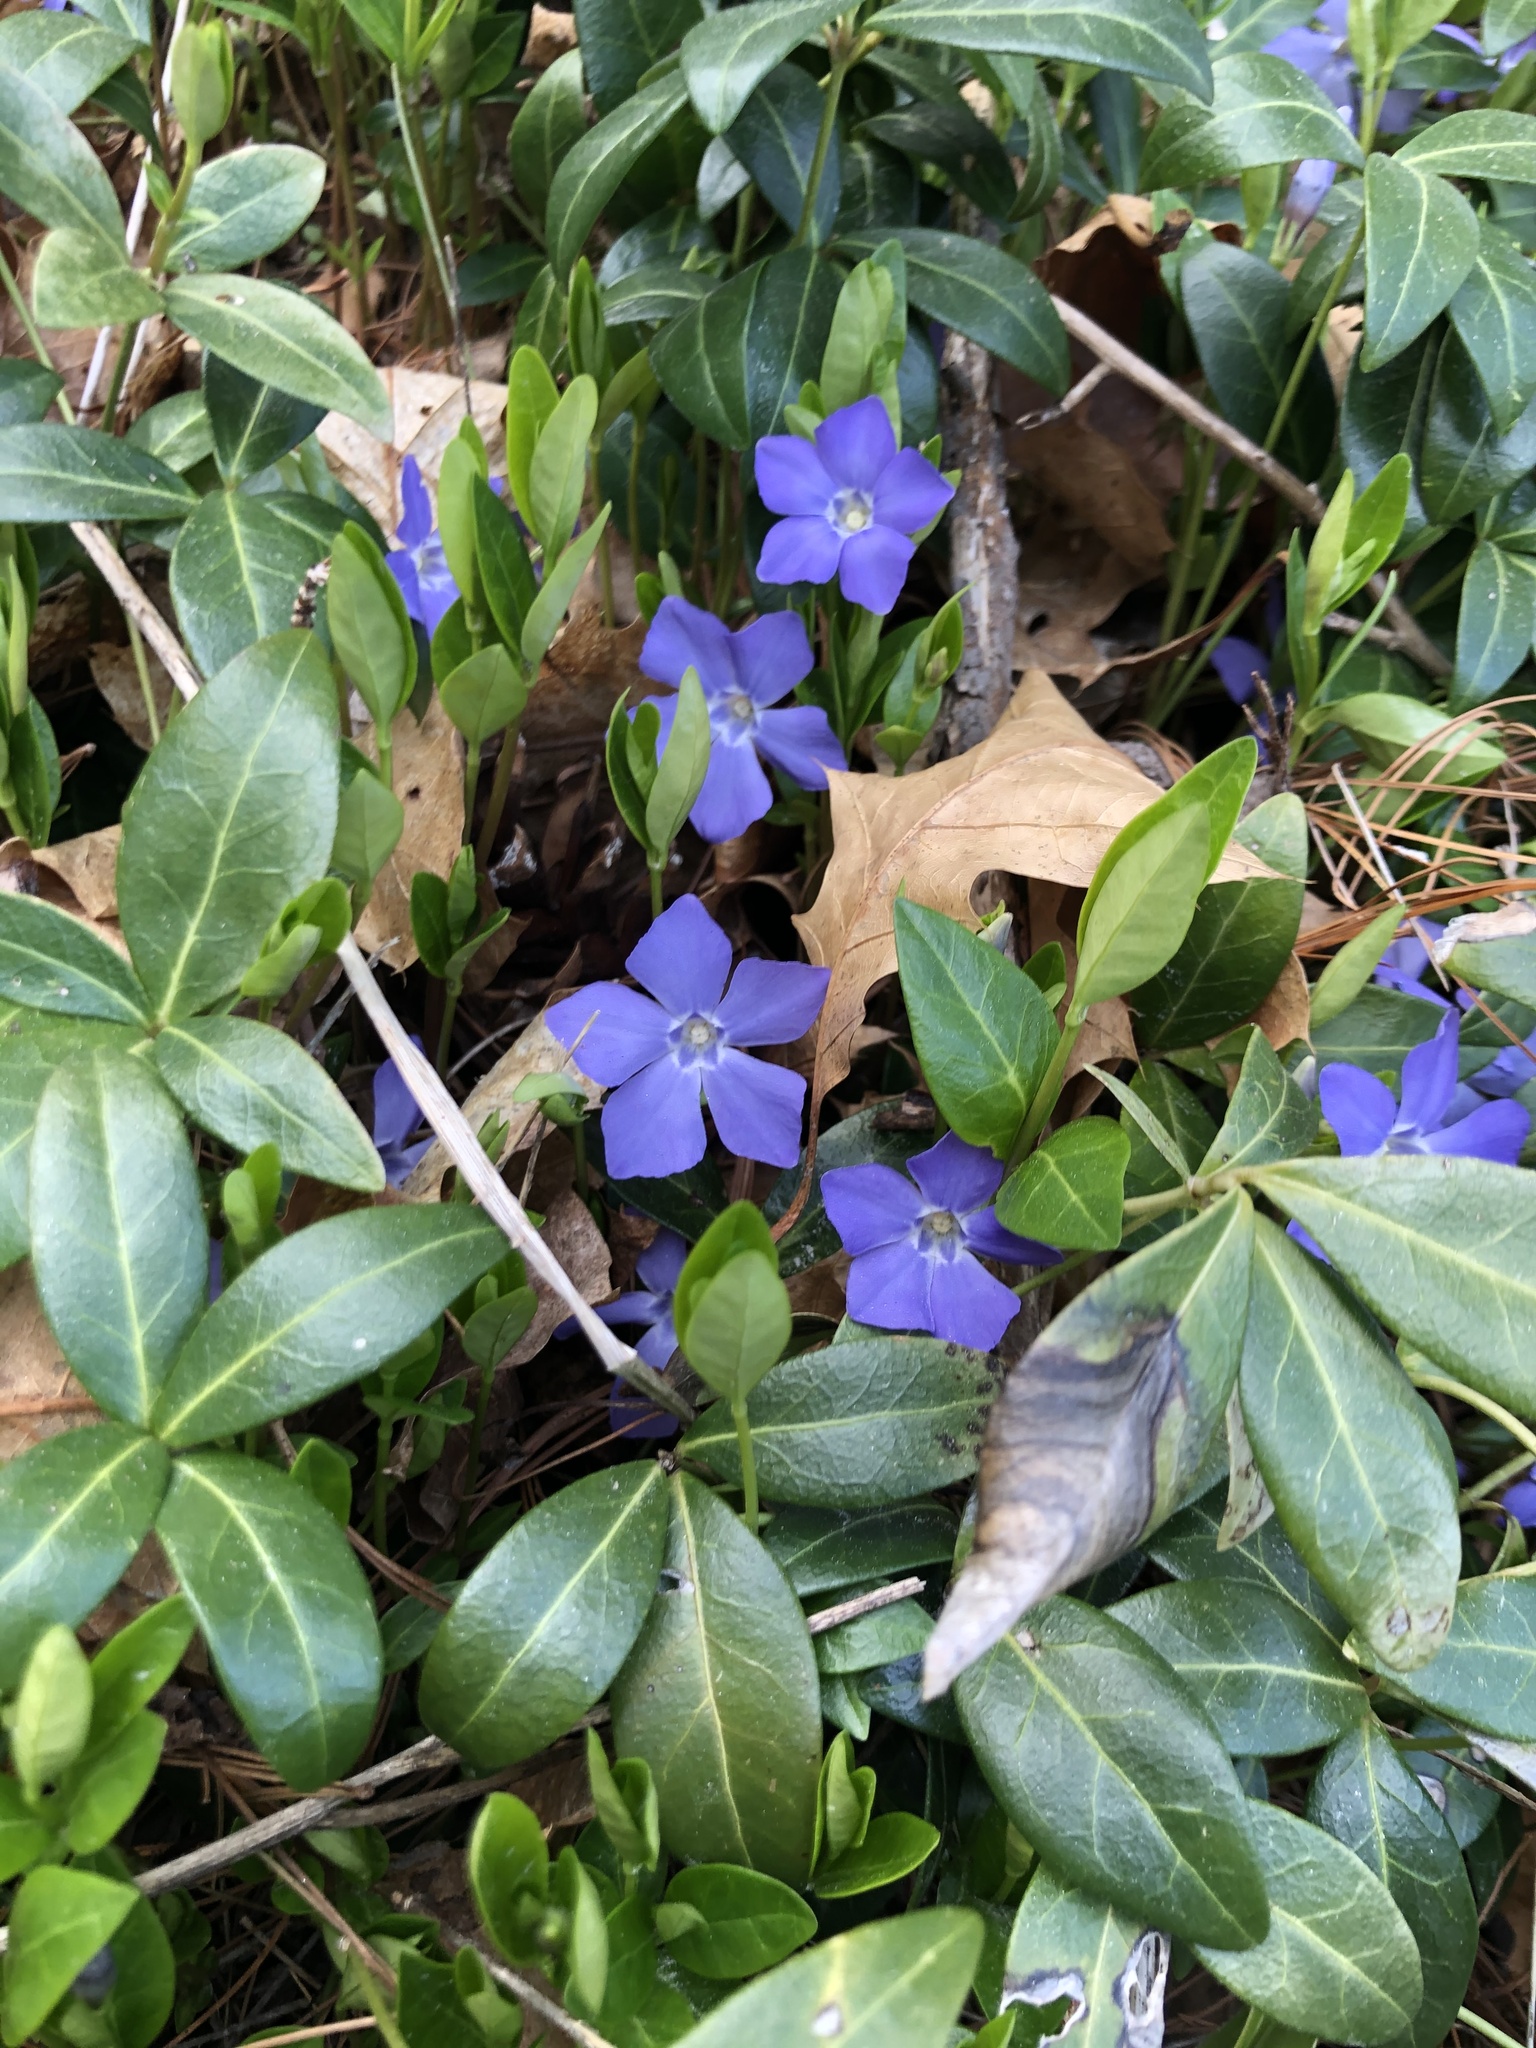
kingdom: Plantae
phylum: Tracheophyta
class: Magnoliopsida
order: Gentianales
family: Apocynaceae
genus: Vinca
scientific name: Vinca minor
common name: Lesser periwinkle
